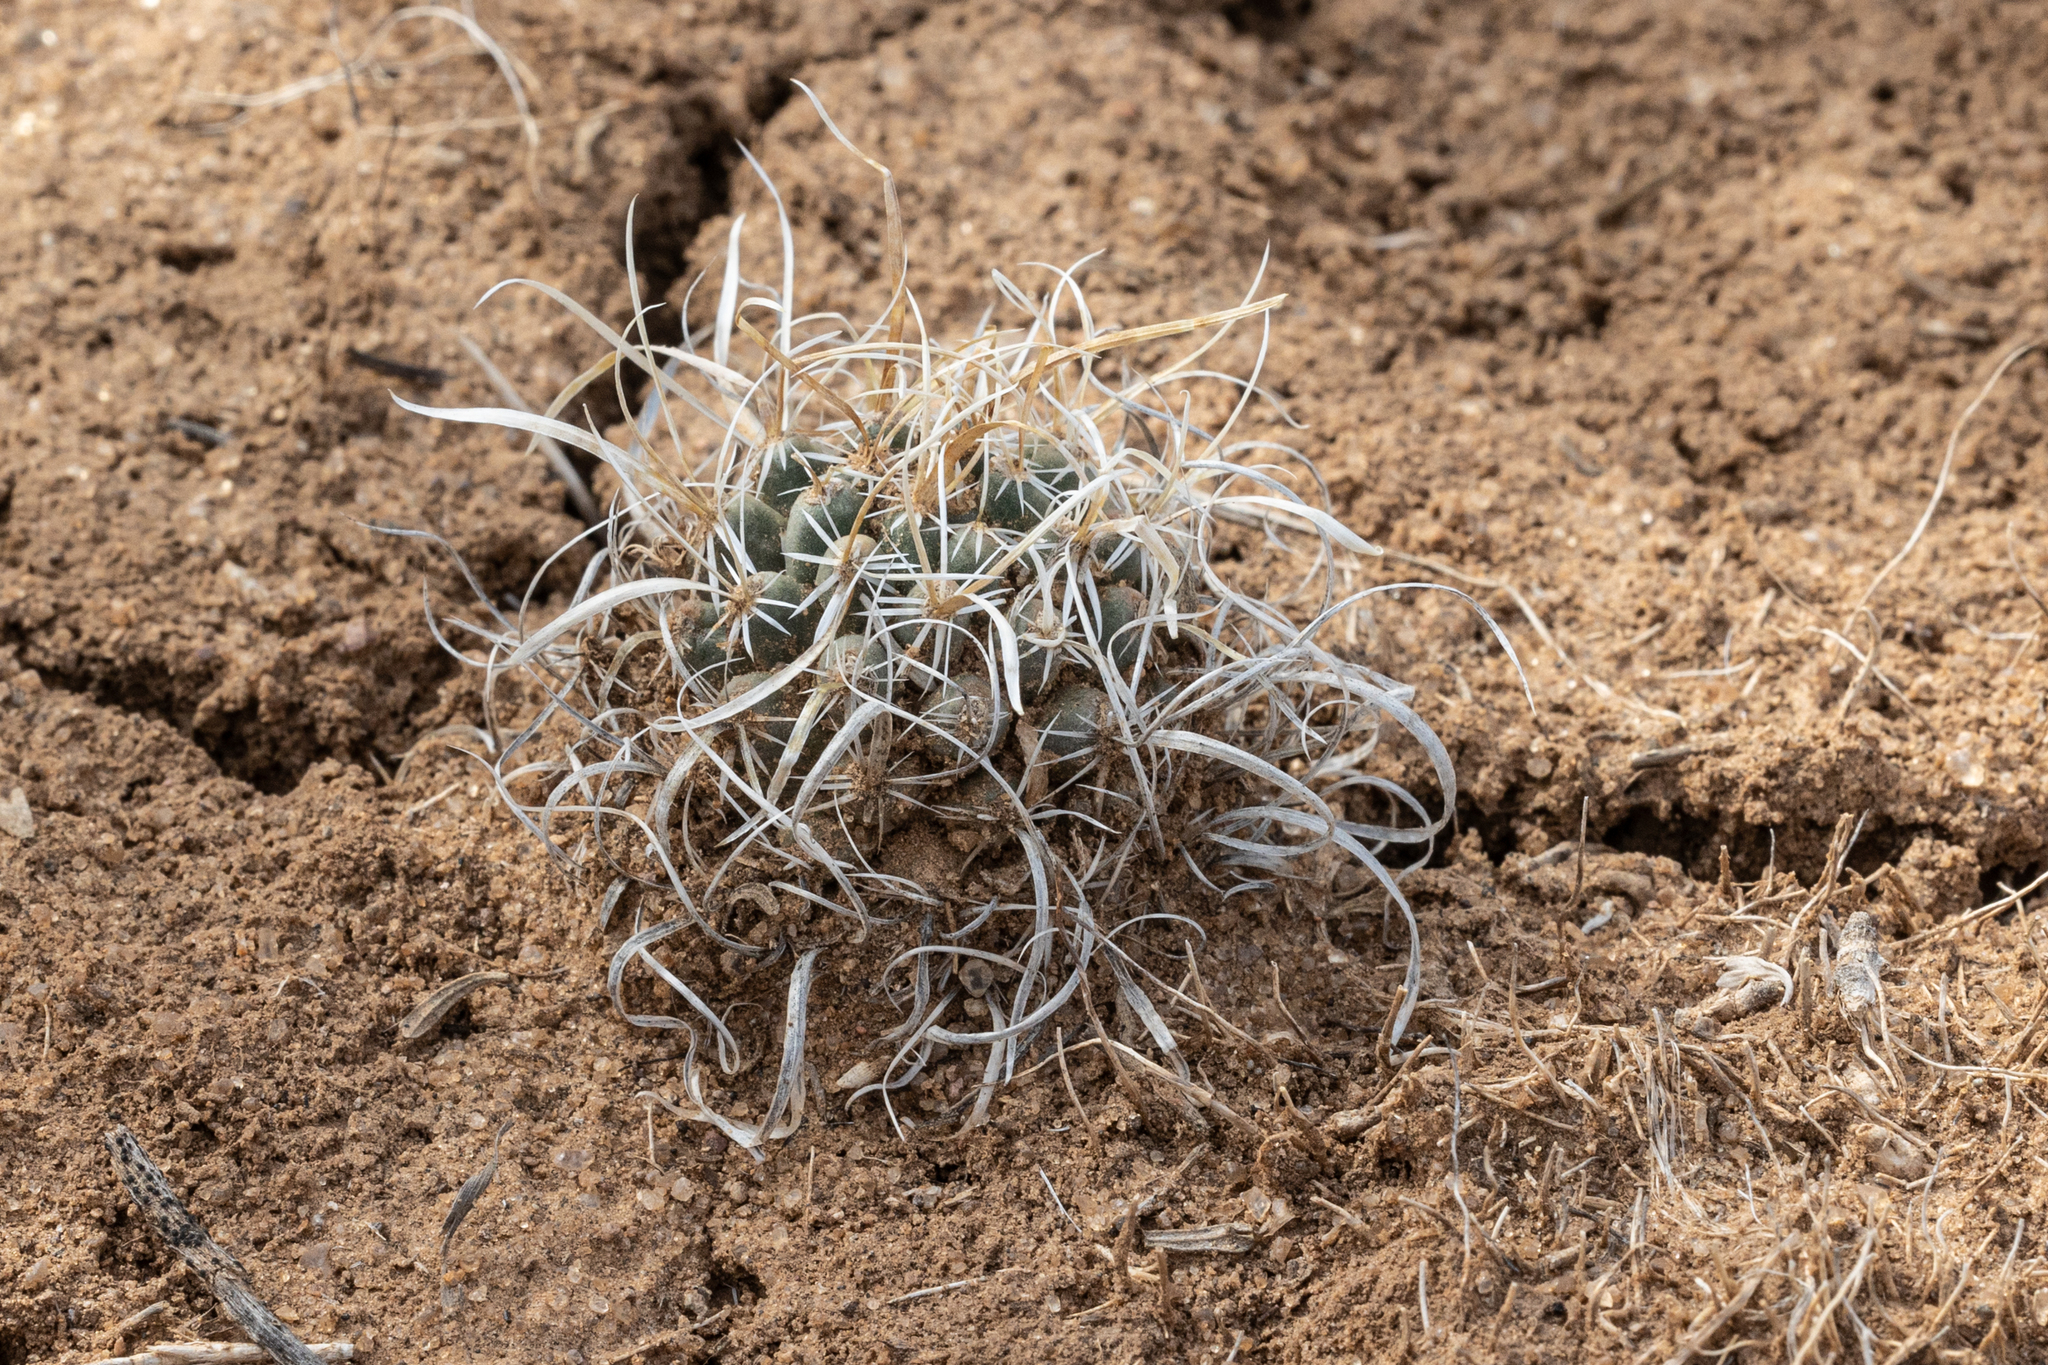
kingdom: Plantae
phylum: Tracheophyta
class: Magnoliopsida
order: Caryophyllales
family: Cactaceae
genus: Sclerocactus
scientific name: Sclerocactus papyracanthus
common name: Grama grass cactus
